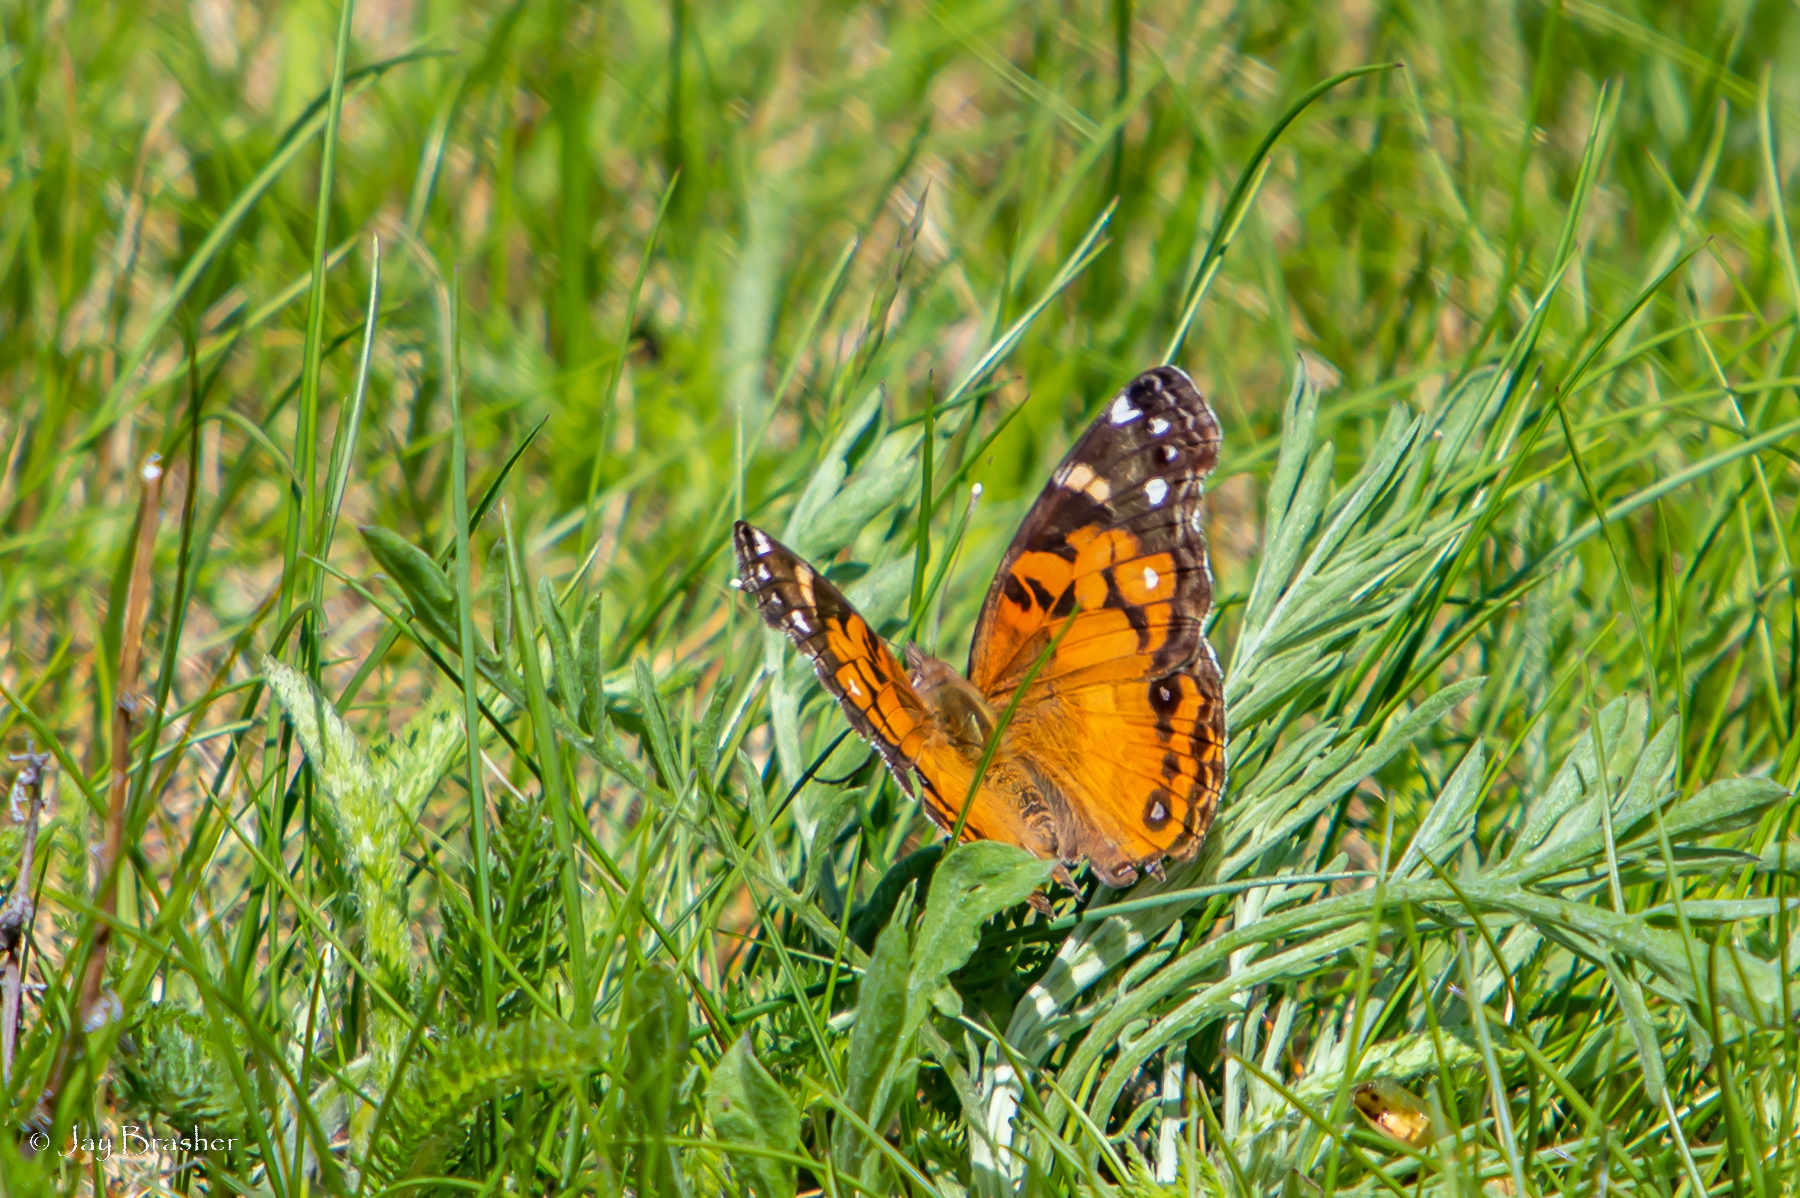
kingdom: Animalia
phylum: Arthropoda
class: Insecta
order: Lepidoptera
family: Nymphalidae
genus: Vanessa
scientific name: Vanessa virginiensis
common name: American lady
